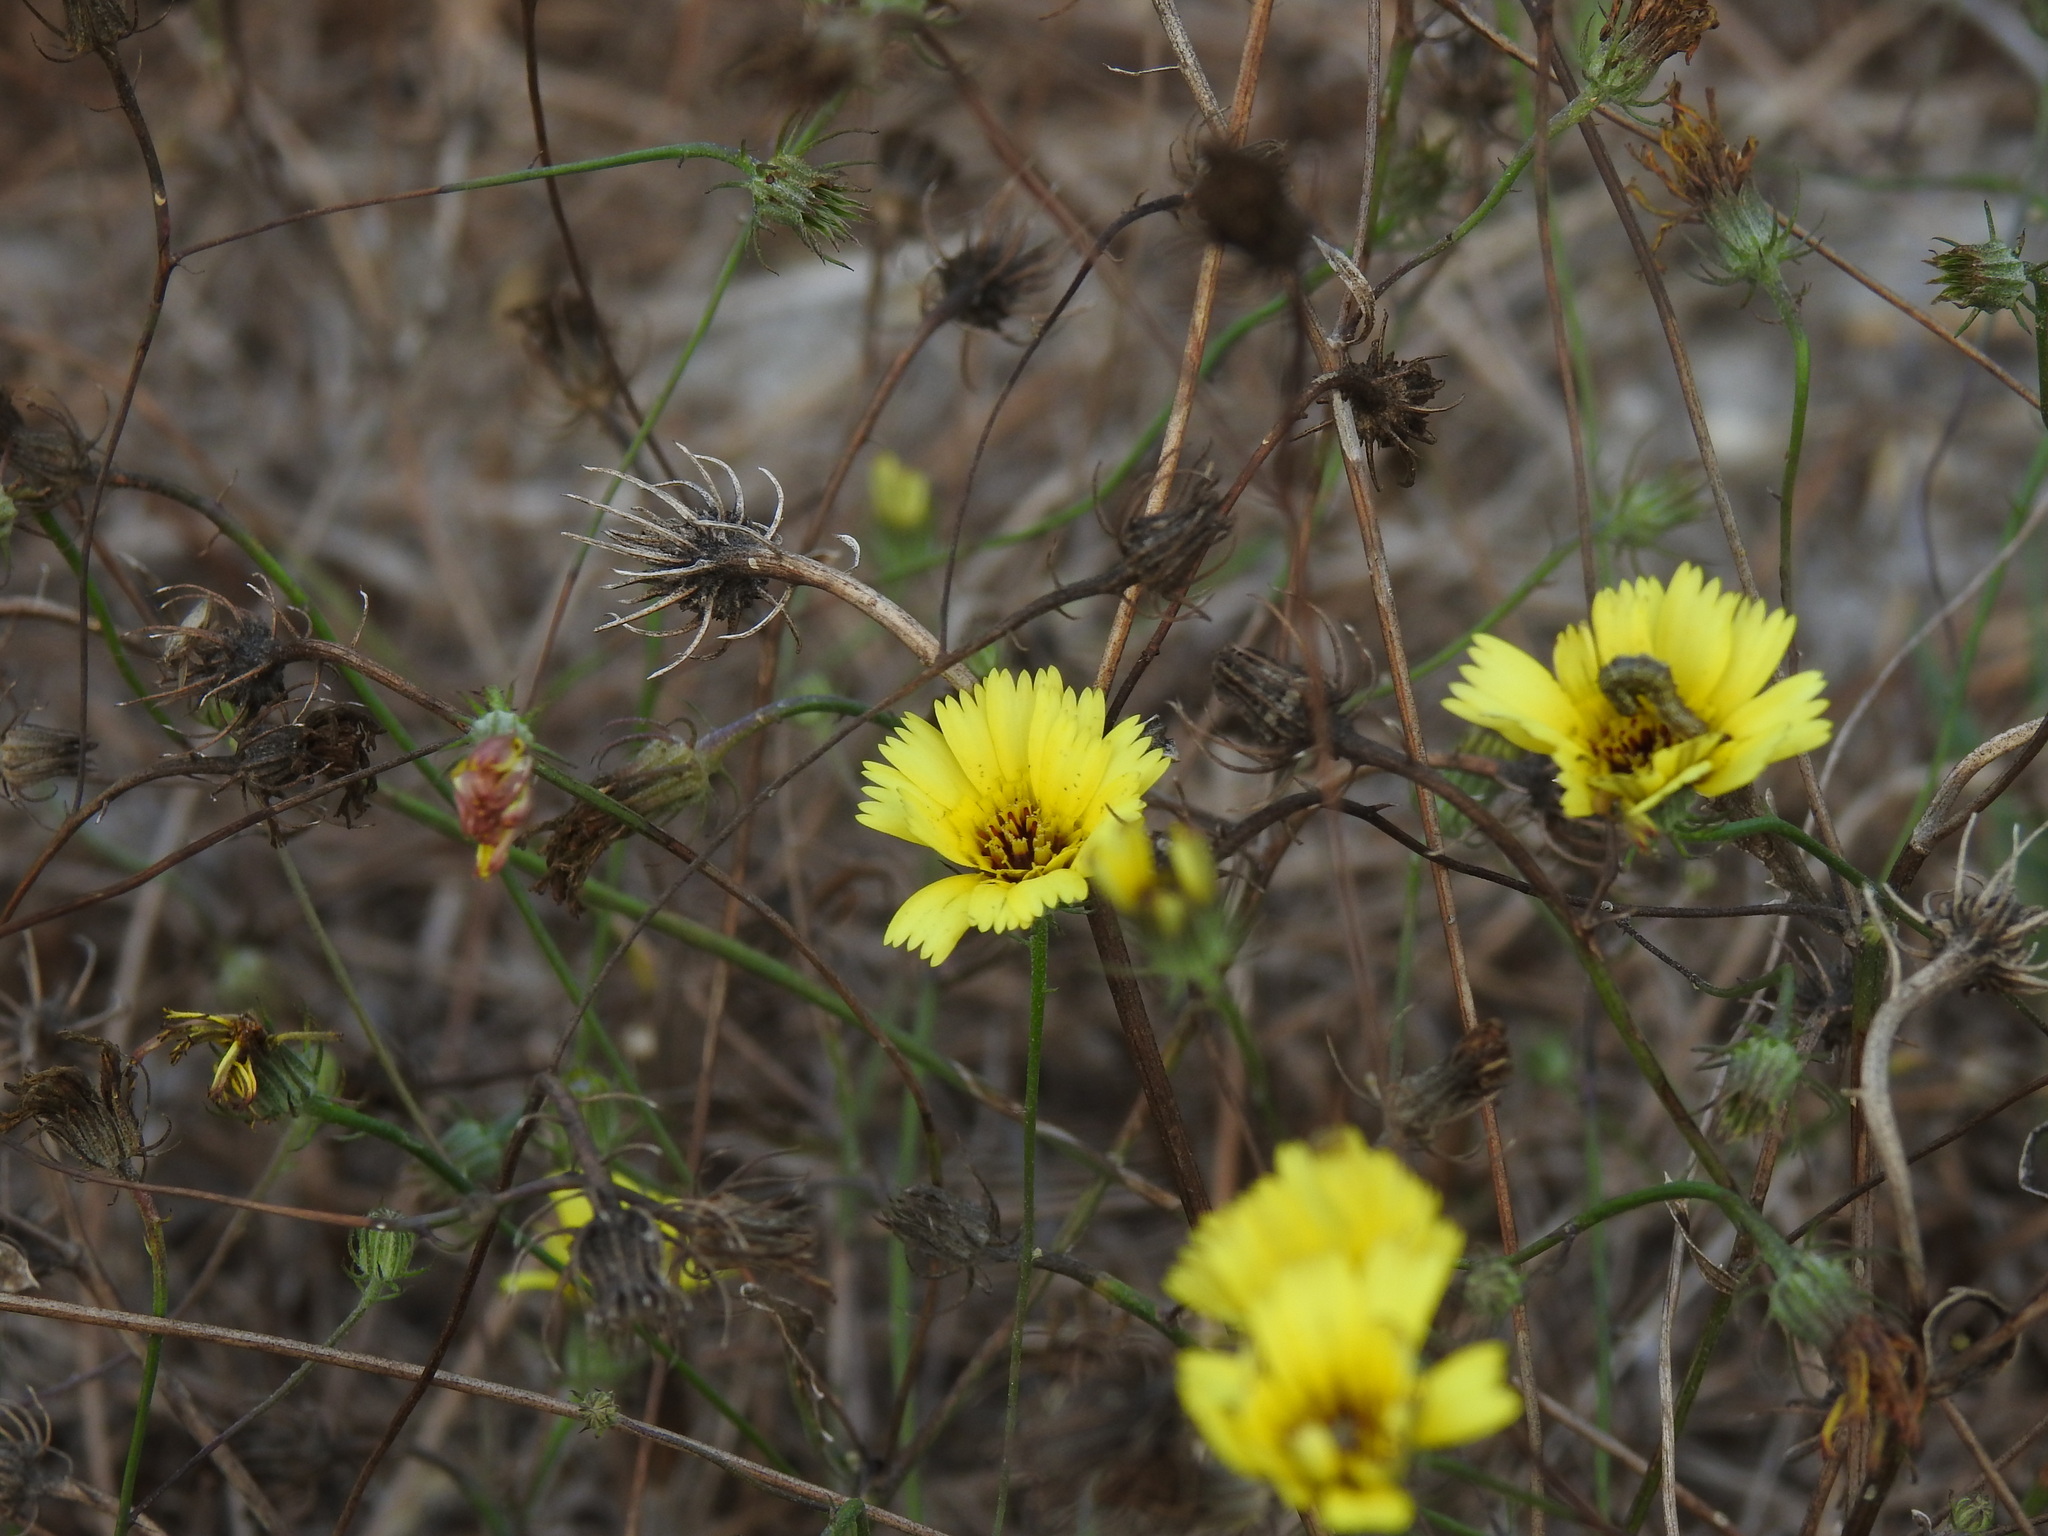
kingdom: Plantae
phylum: Tracheophyta
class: Magnoliopsida
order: Asterales
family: Asteraceae
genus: Tolpis
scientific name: Tolpis barbata
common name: Yellow hawkweed
